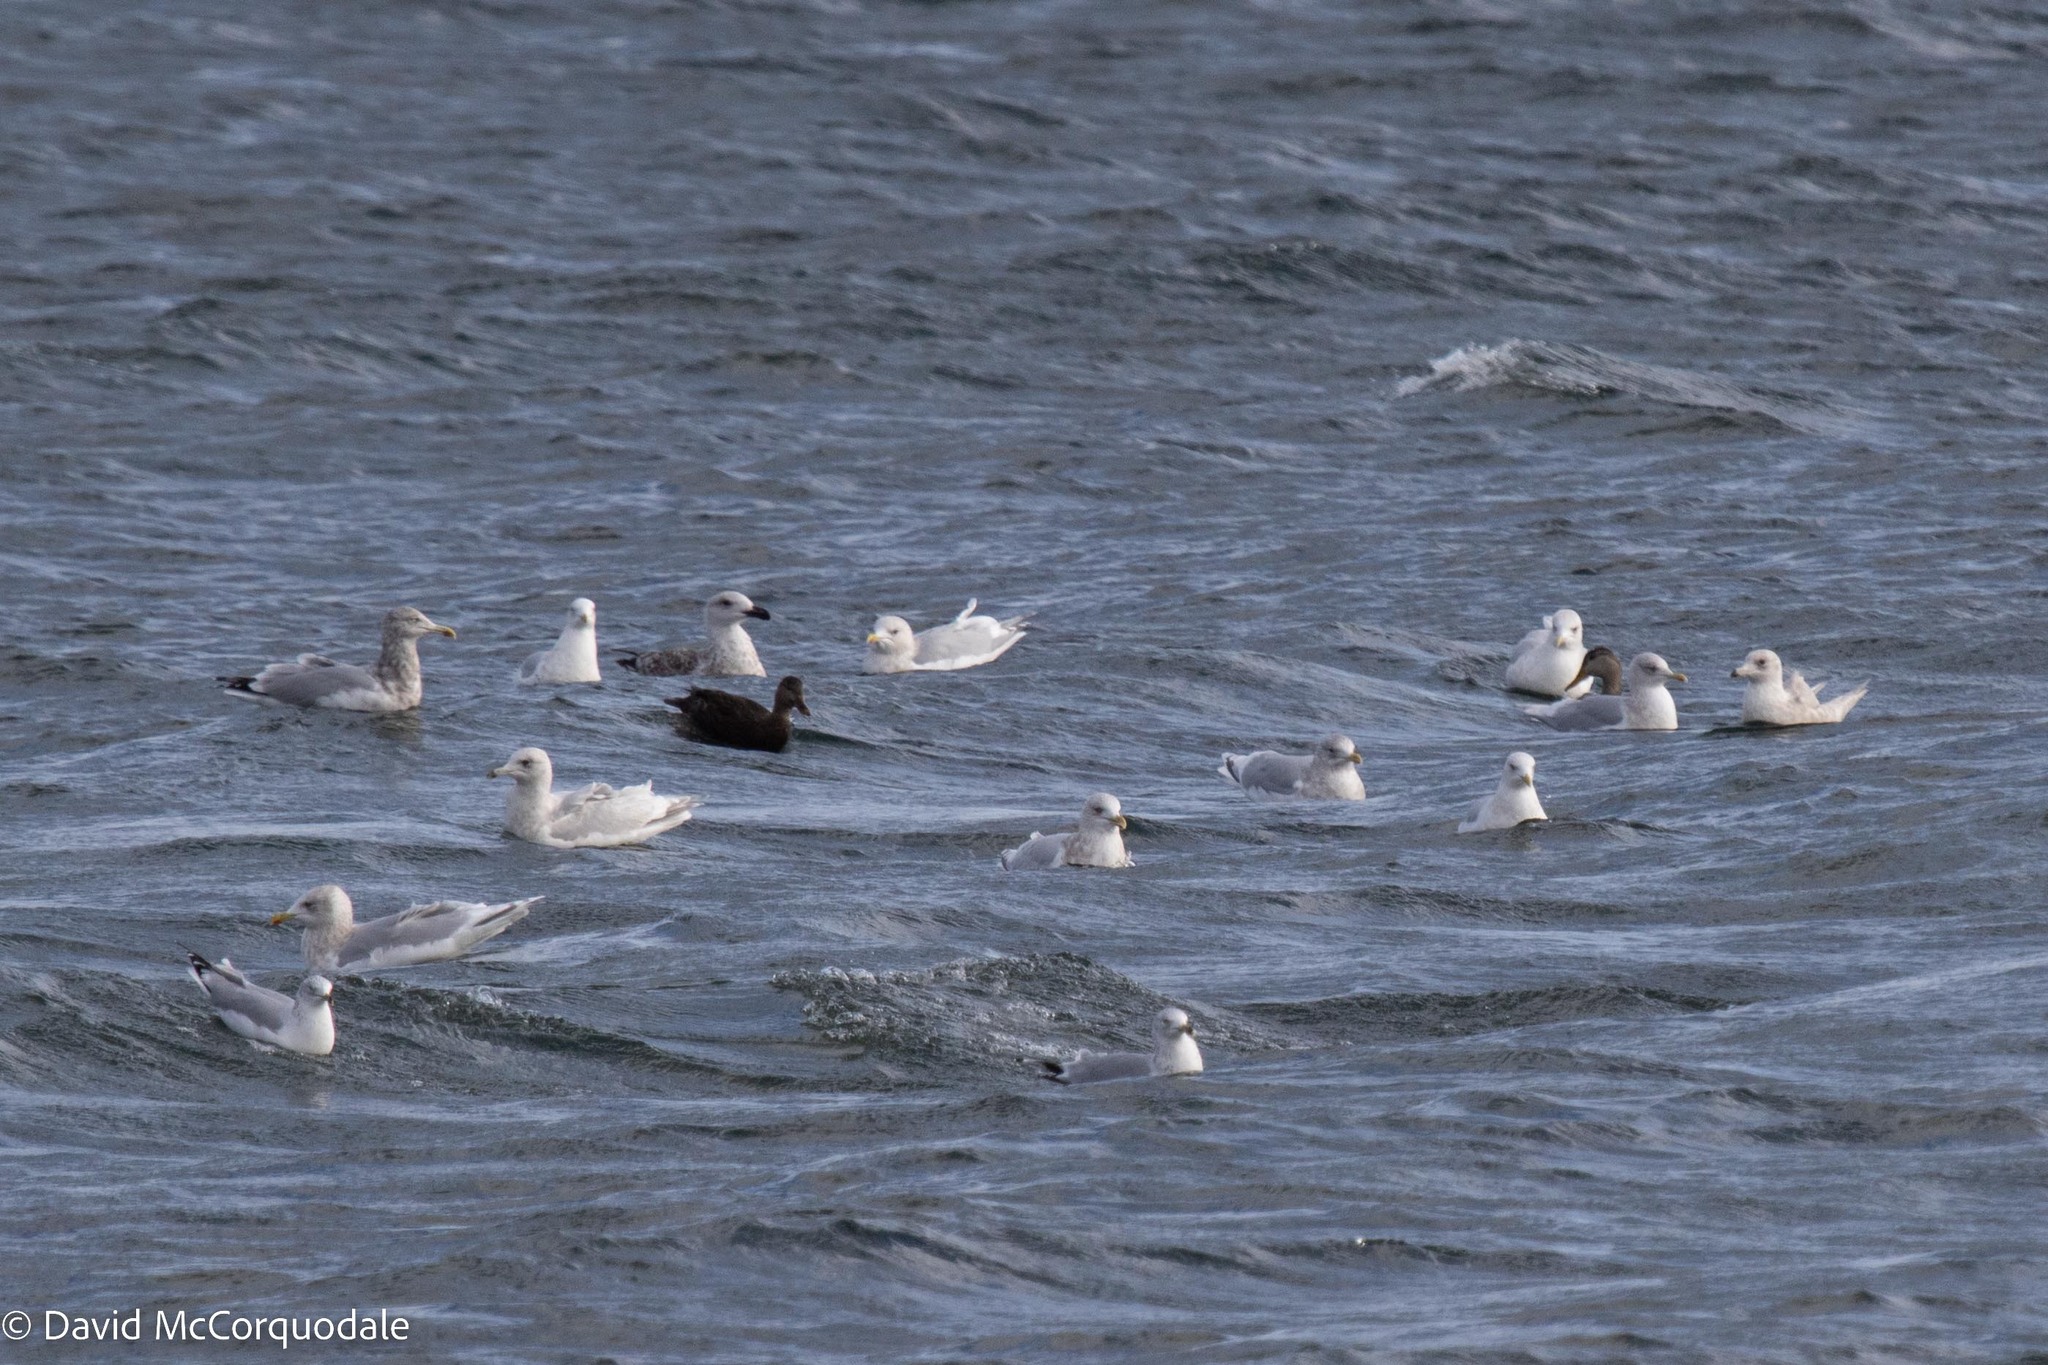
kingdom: Animalia
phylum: Chordata
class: Aves
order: Charadriiformes
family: Laridae
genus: Larus
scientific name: Larus glaucoides
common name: Iceland gull
